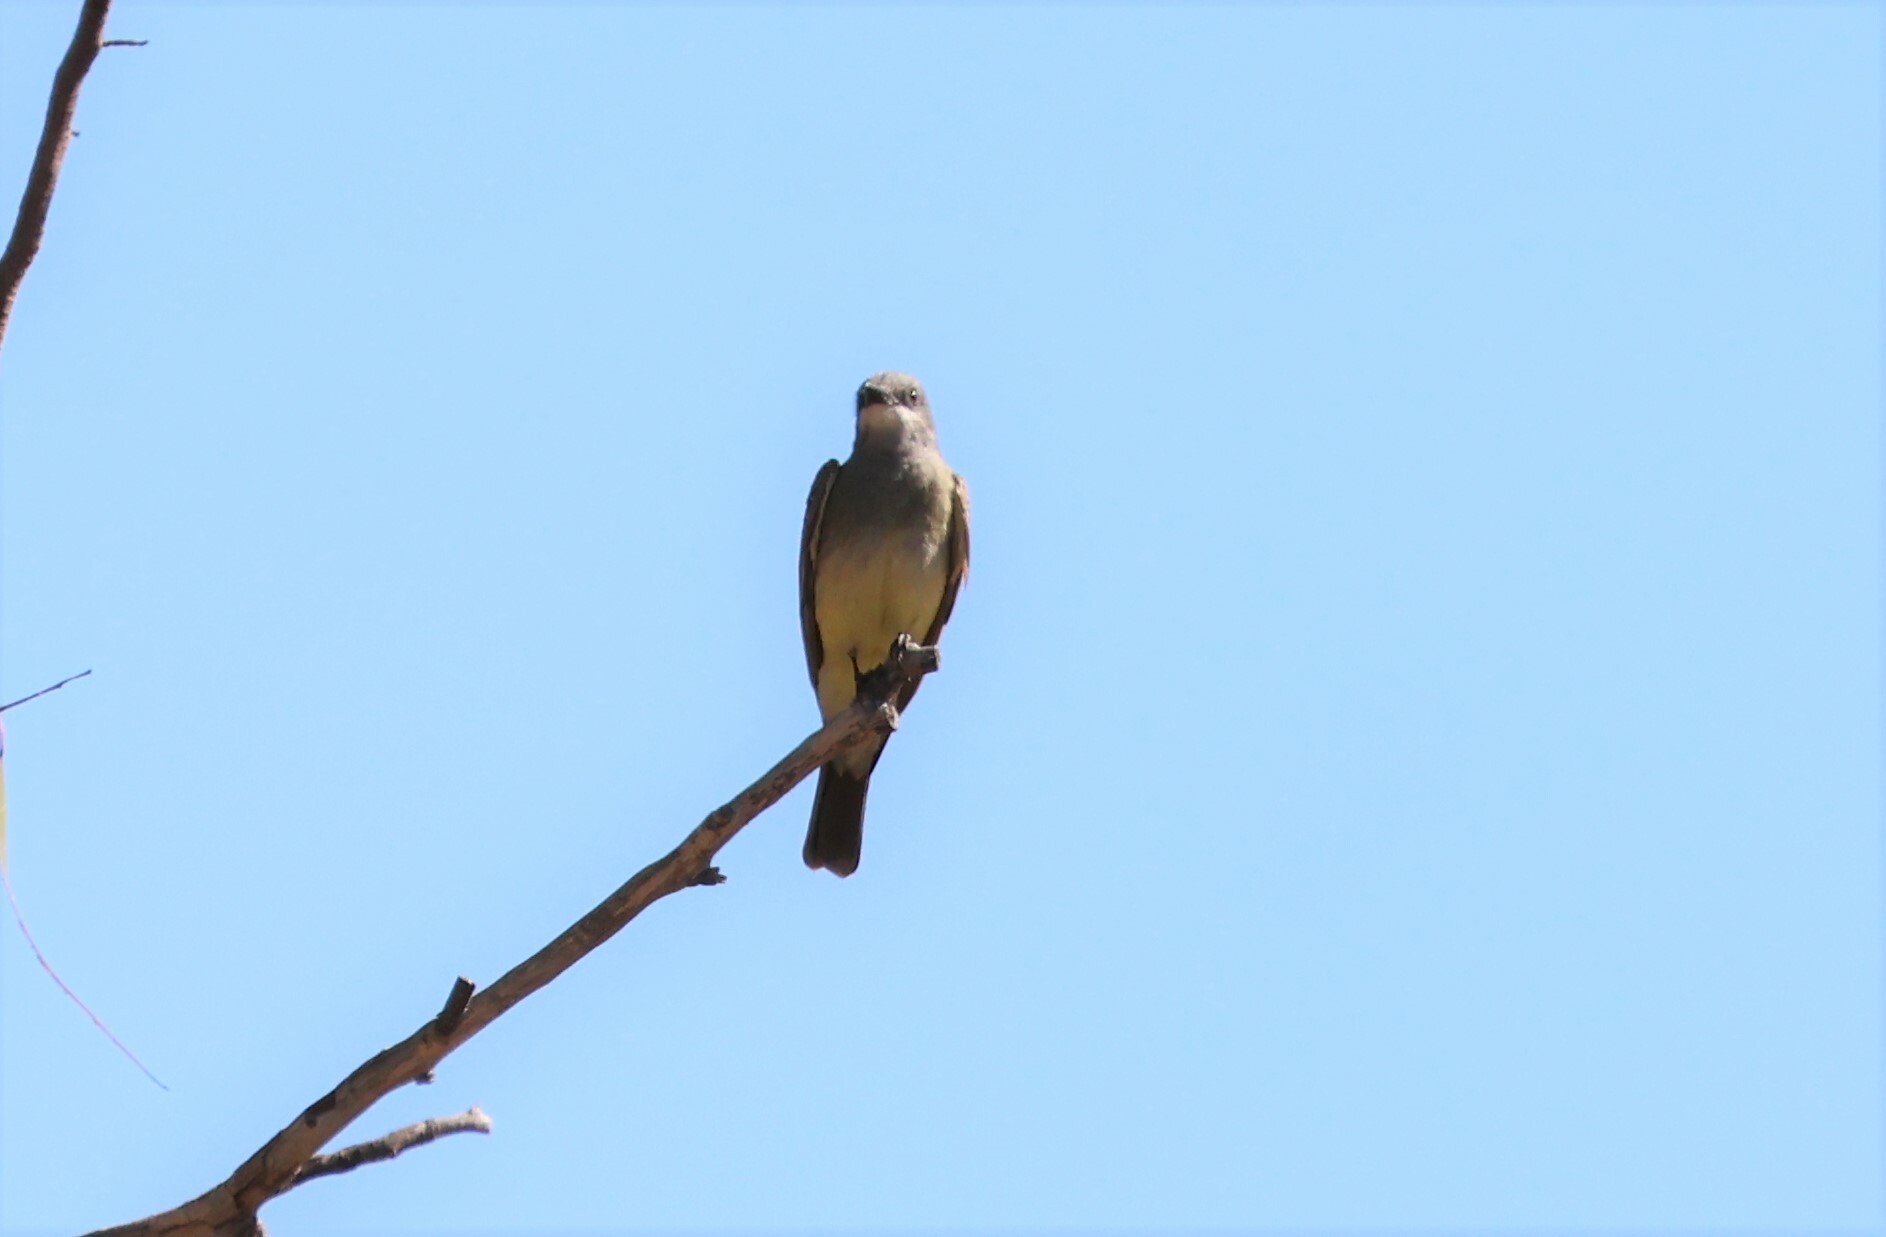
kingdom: Animalia
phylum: Chordata
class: Aves
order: Passeriformes
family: Tyrannidae
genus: Tyrannus
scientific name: Tyrannus vociferans
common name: Cassin's kingbird
